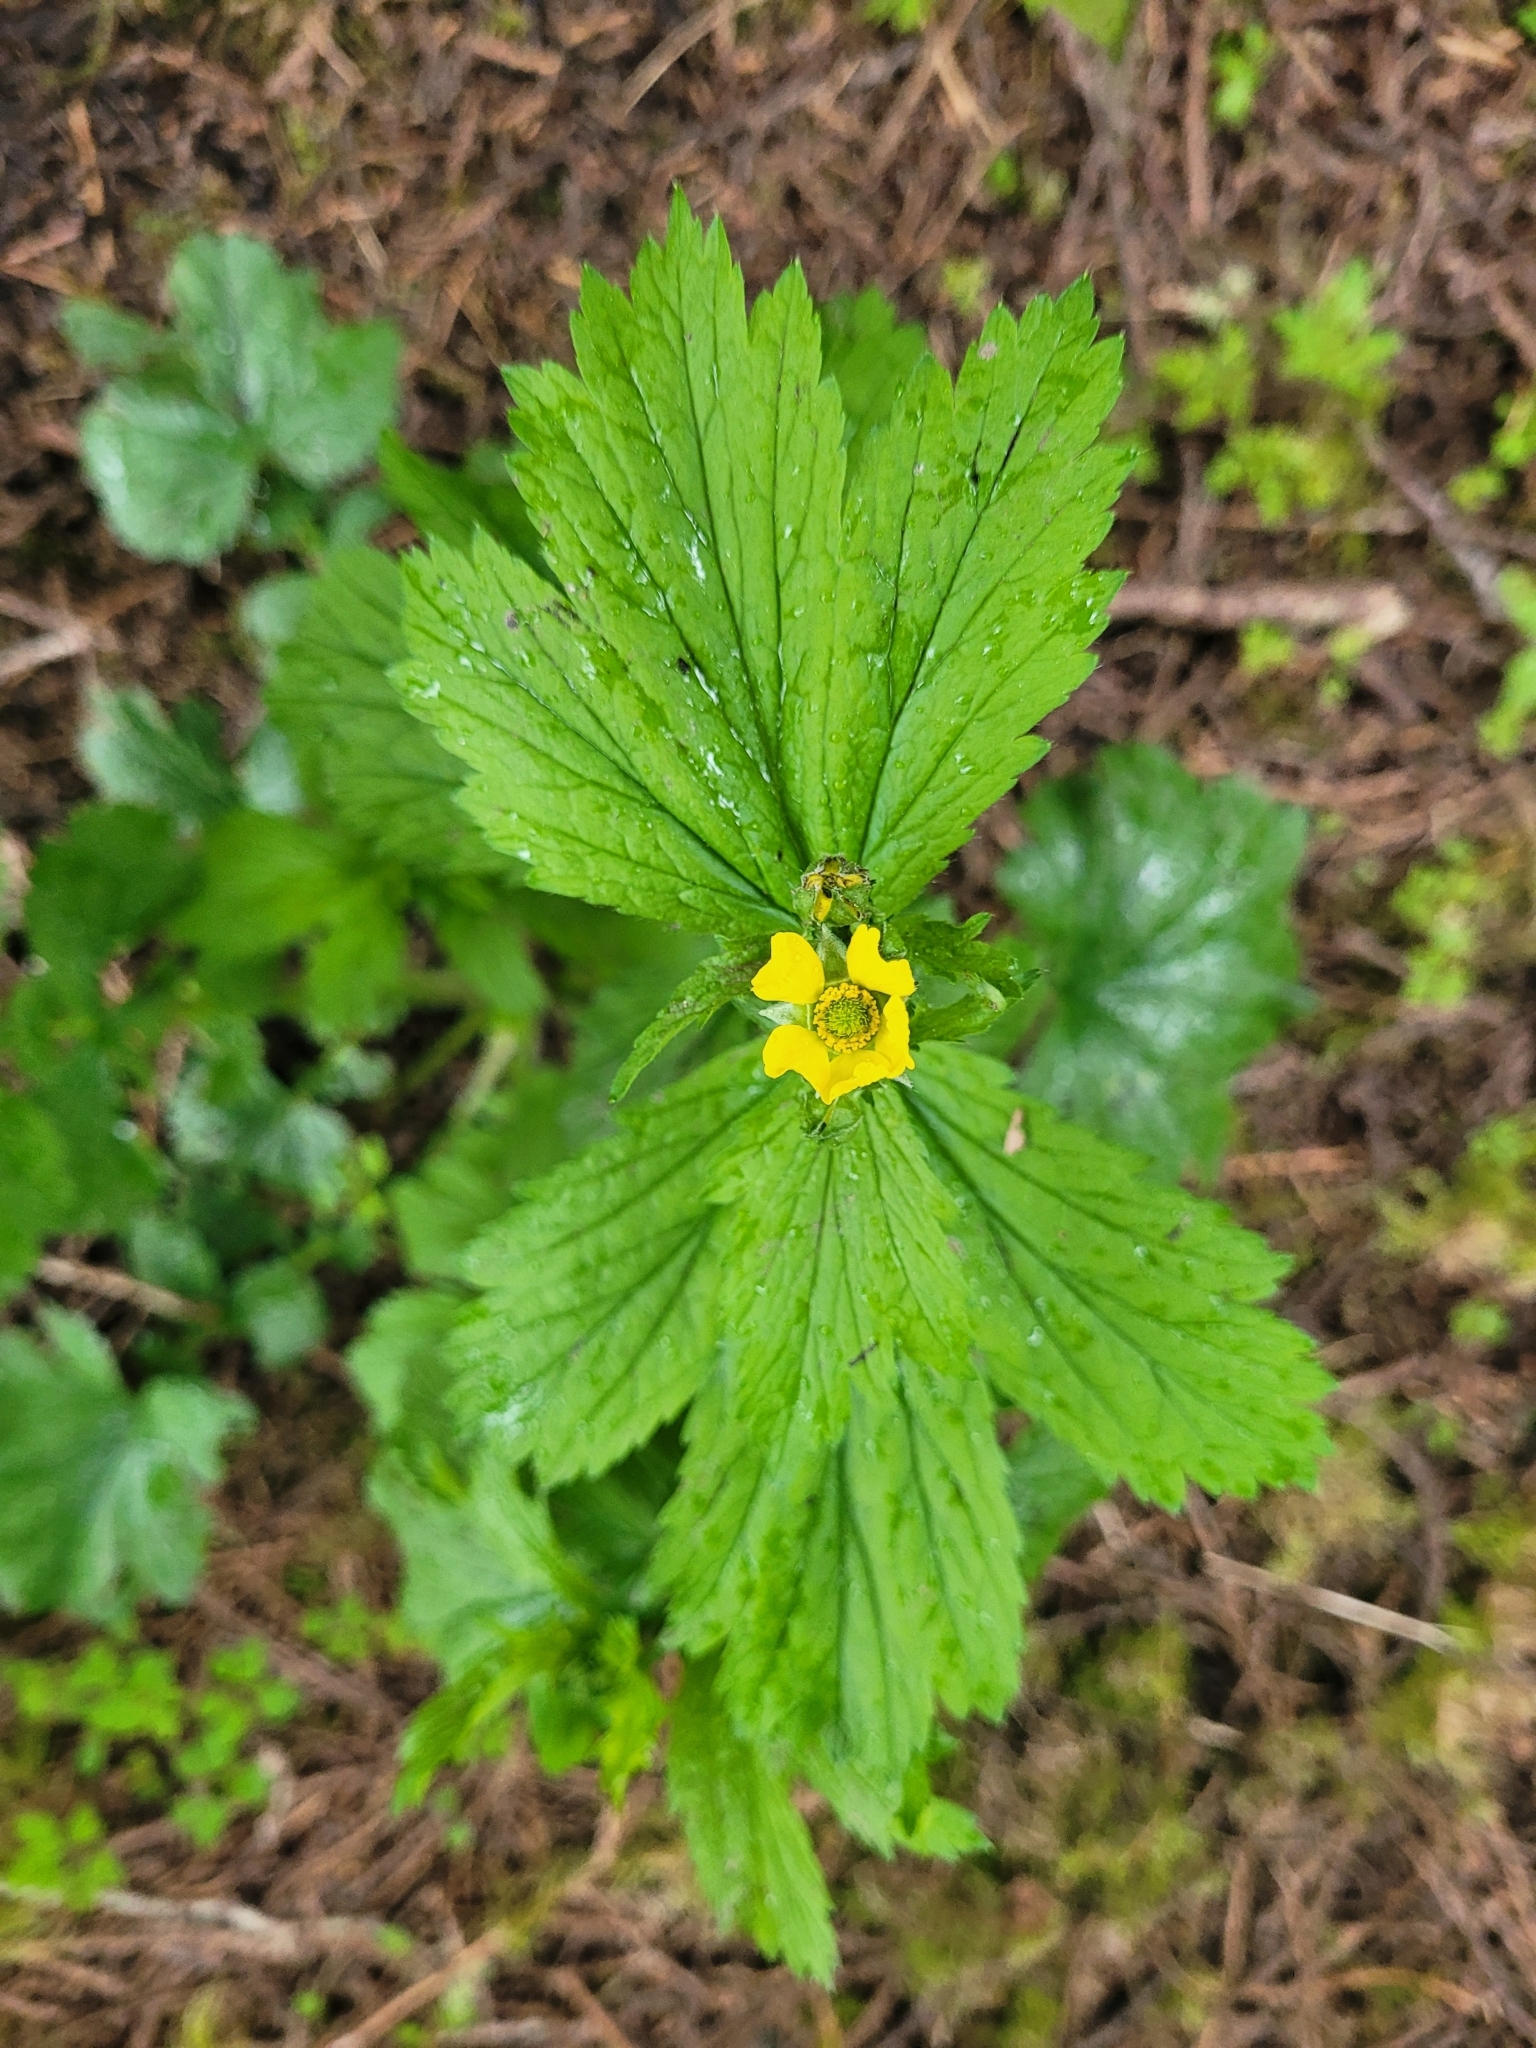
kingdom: Plantae
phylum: Tracheophyta
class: Magnoliopsida
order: Rosales
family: Rosaceae
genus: Geum
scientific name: Geum macrophyllum
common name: Large-leaved avens
